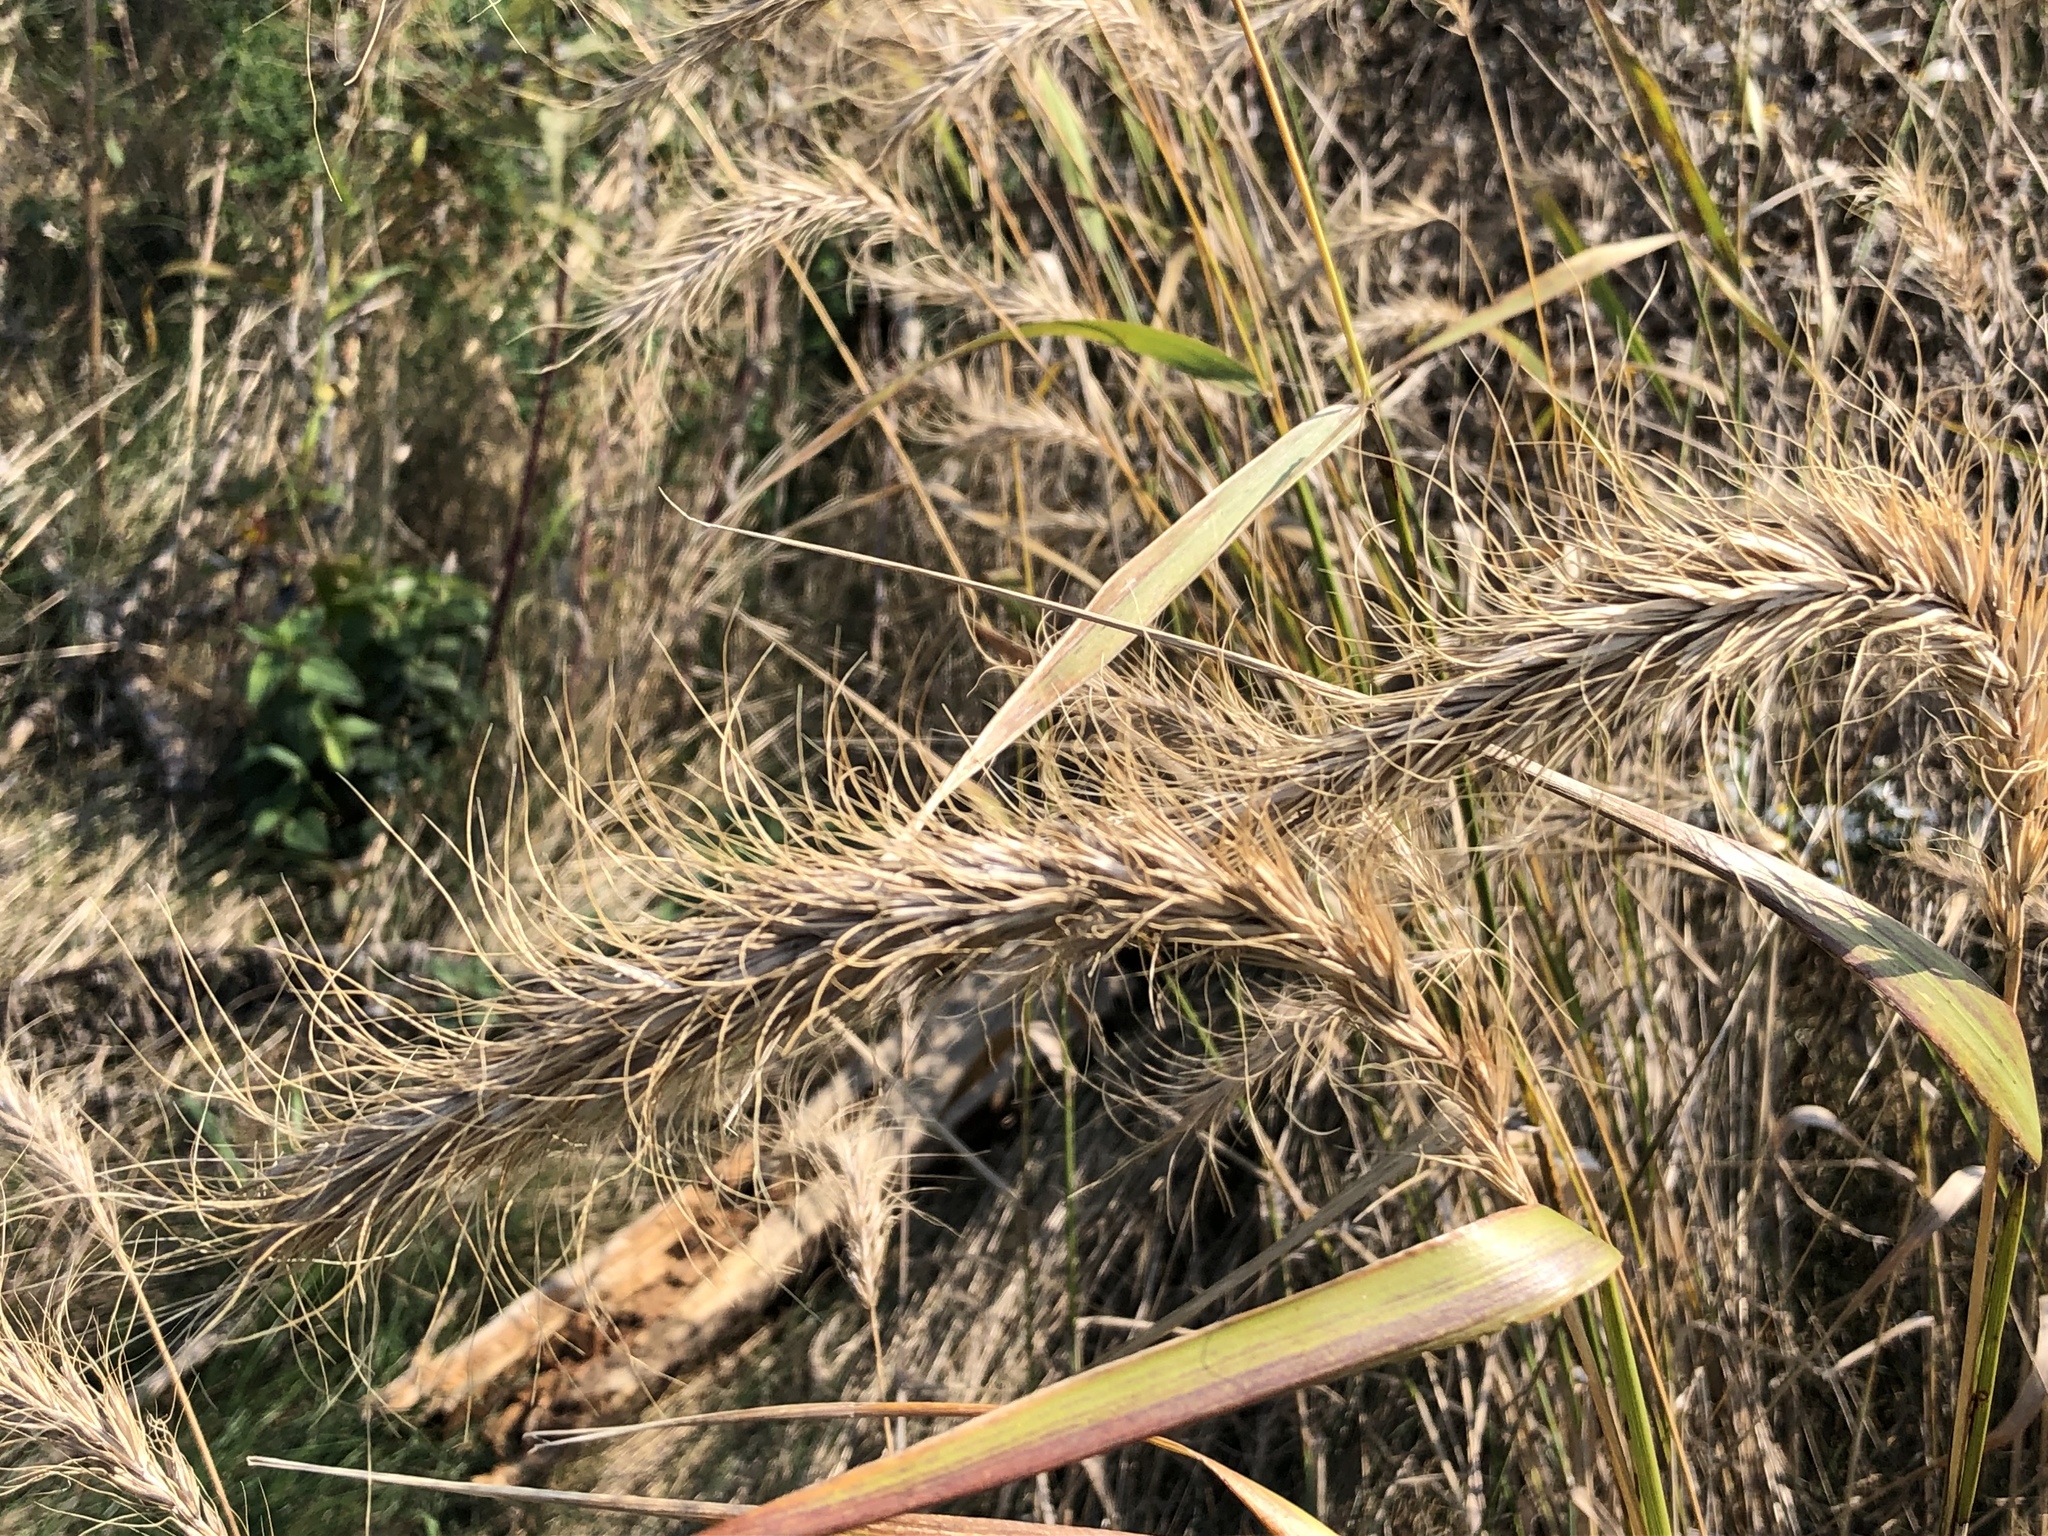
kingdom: Plantae
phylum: Tracheophyta
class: Liliopsida
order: Poales
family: Poaceae
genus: Elymus
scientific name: Elymus canadensis
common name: Canada wild rye
